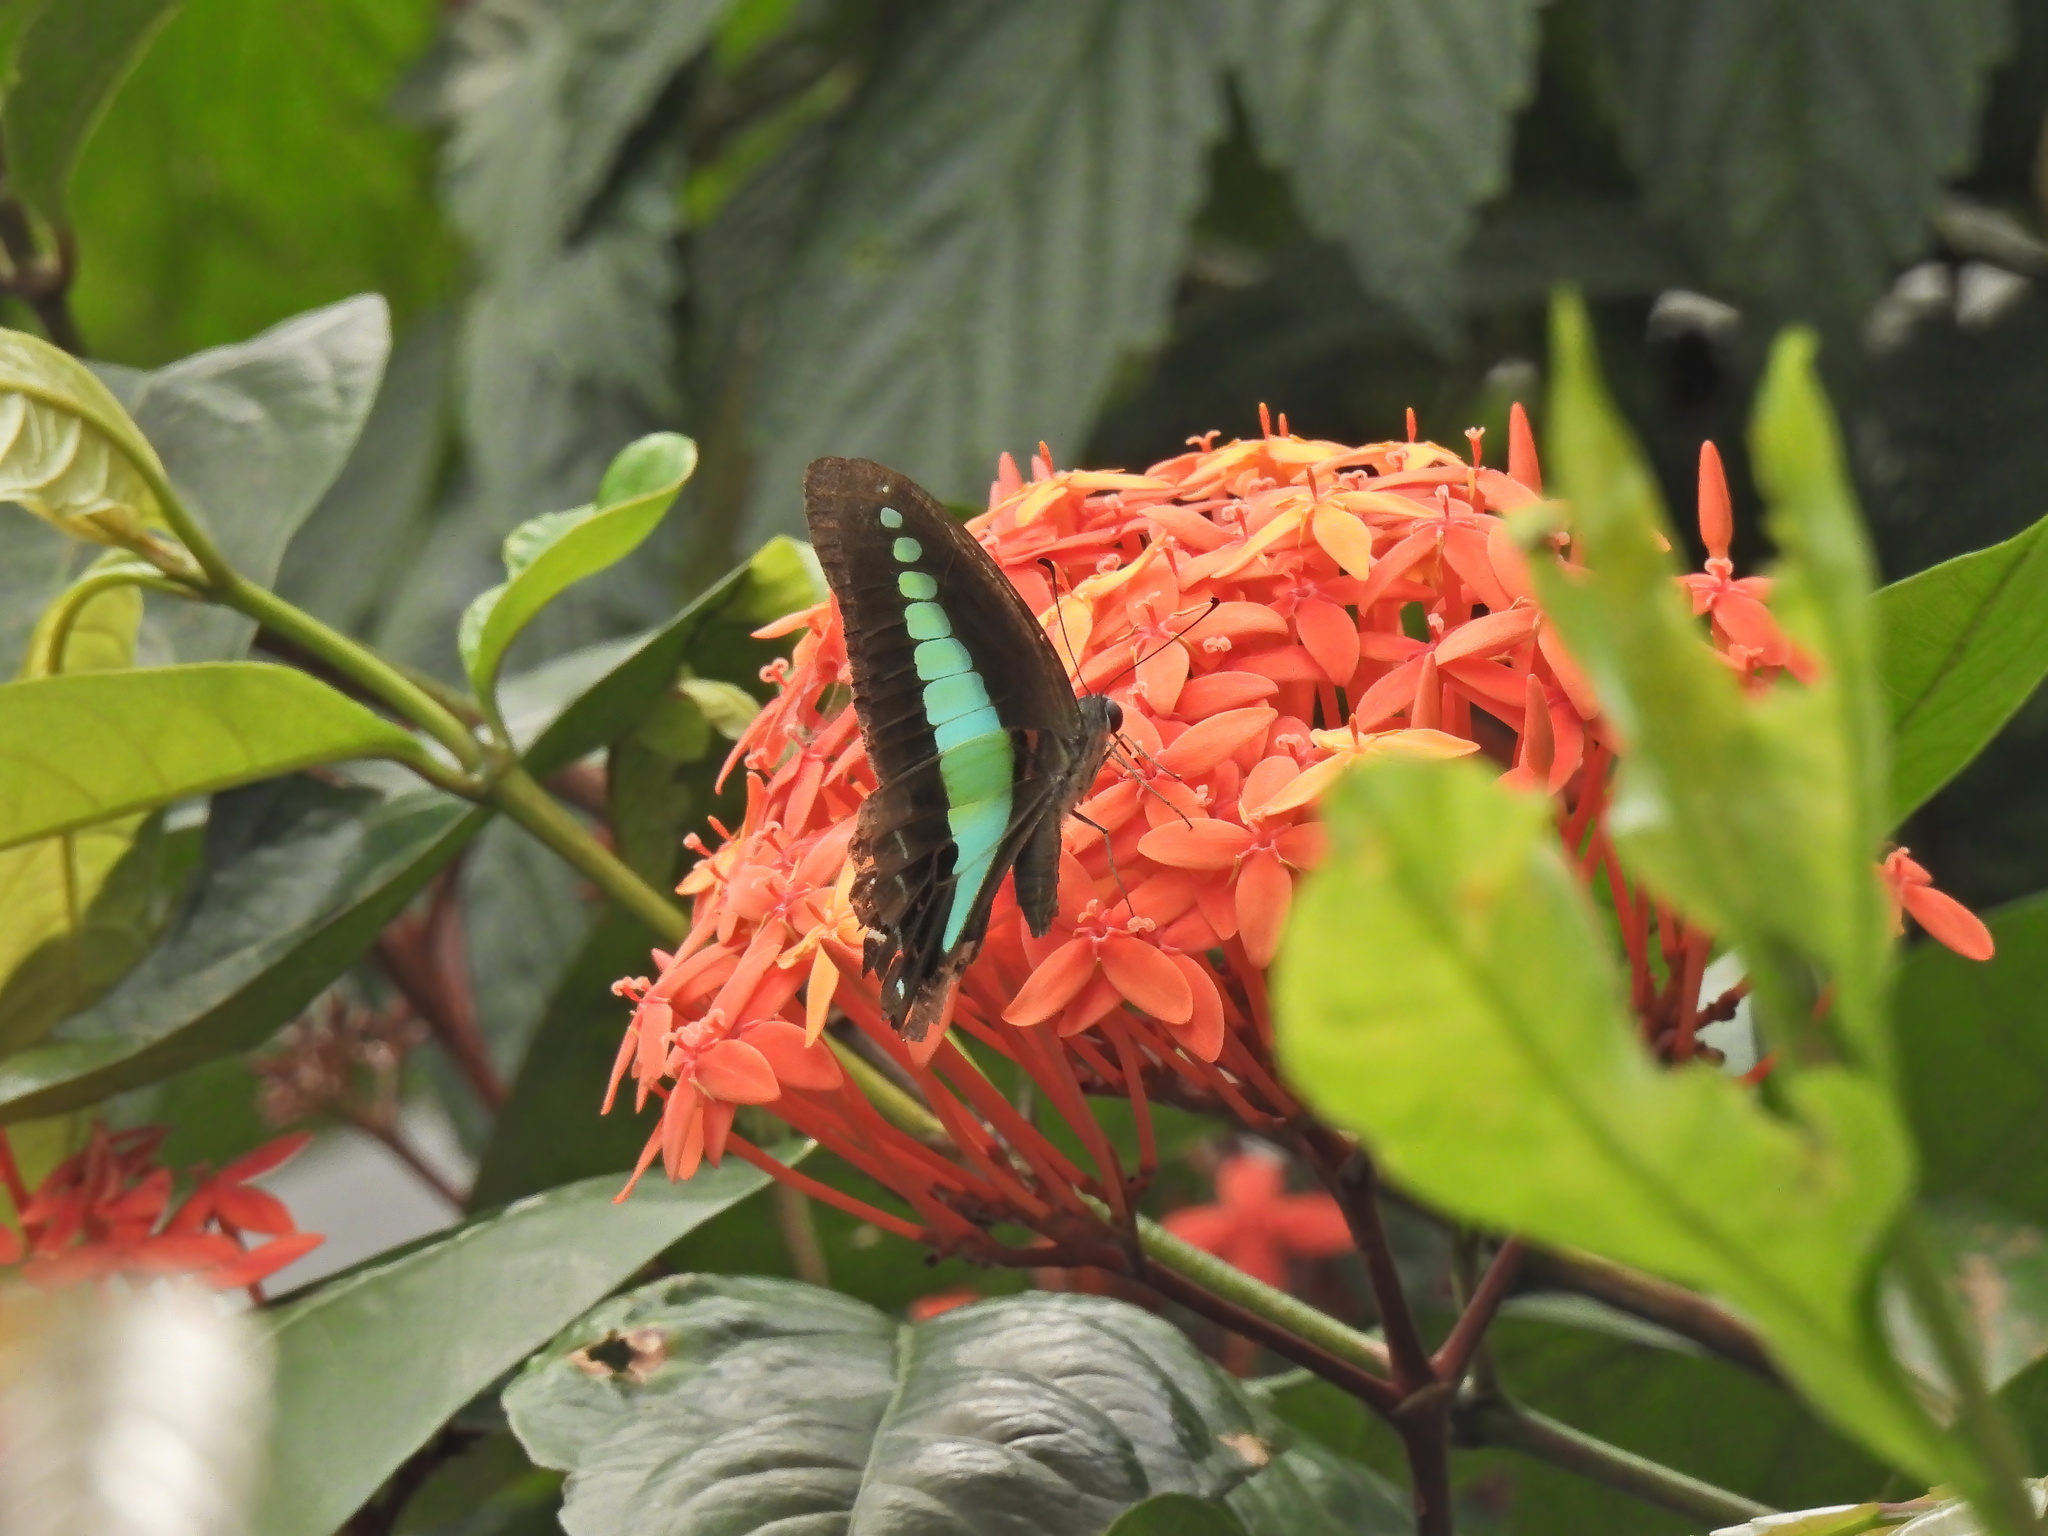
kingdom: Fungi
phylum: Ascomycota
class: Sordariomycetes
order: Microascales
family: Microascaceae
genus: Graphium
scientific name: Graphium sarpedon
